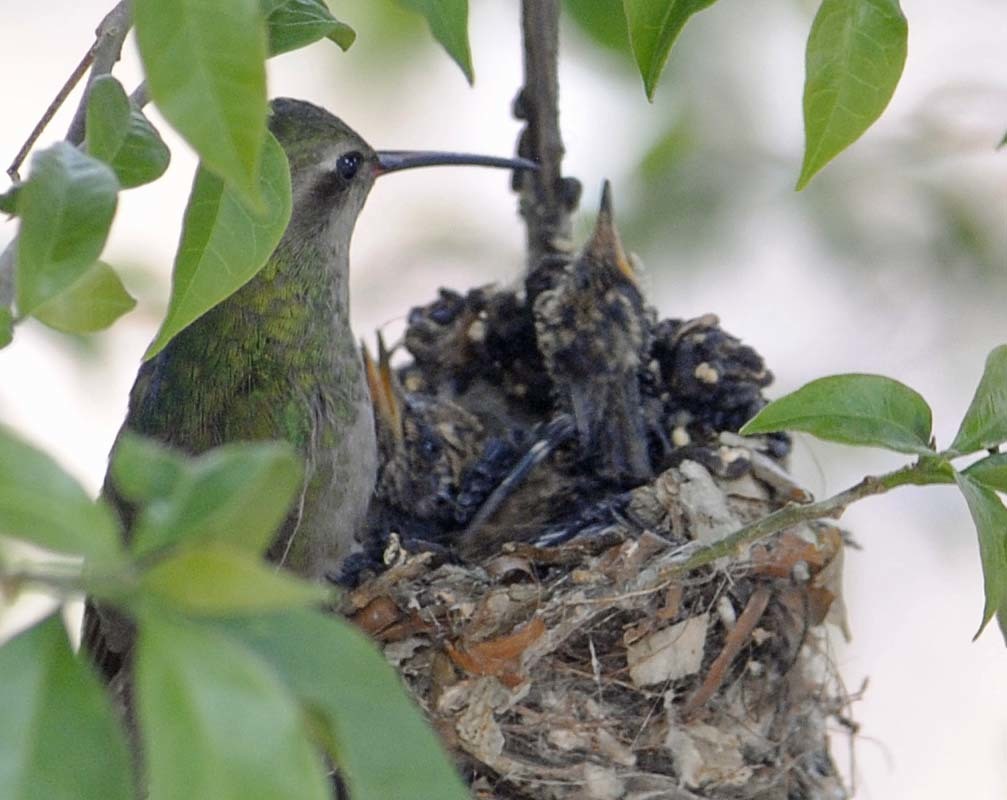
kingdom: Animalia
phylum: Chordata
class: Aves
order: Apodiformes
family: Trochilidae
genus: Cynanthus
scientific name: Cynanthus latirostris
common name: Broad-billed hummingbird
